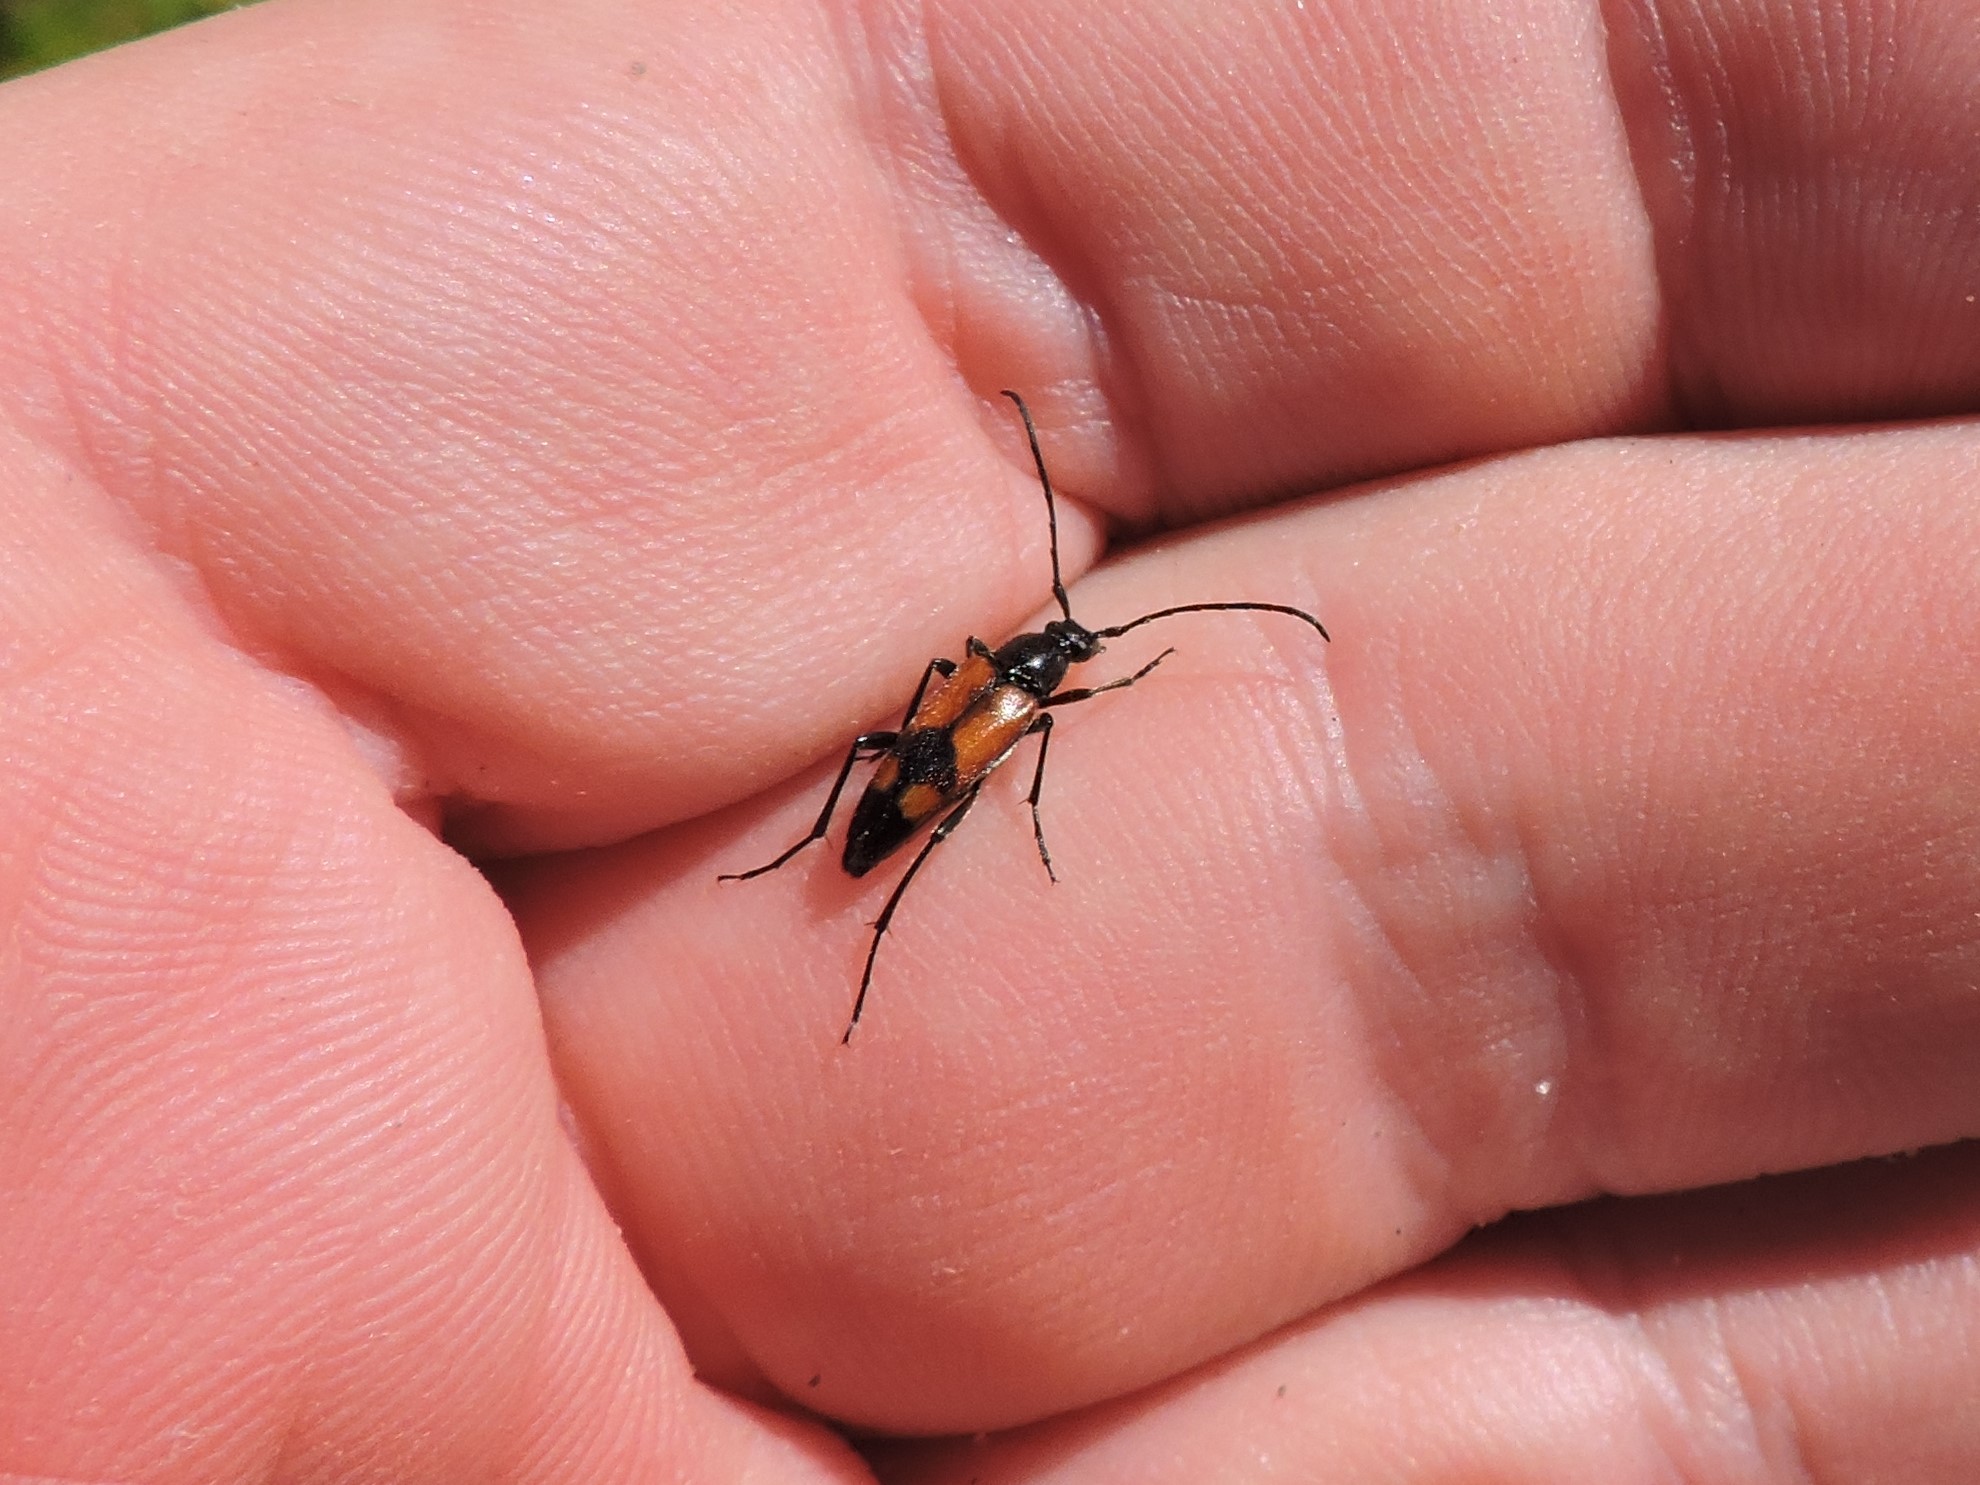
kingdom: Animalia
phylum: Arthropoda
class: Insecta
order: Coleoptera
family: Cerambycidae
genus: Stenurella
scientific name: Stenurella bifasciata
